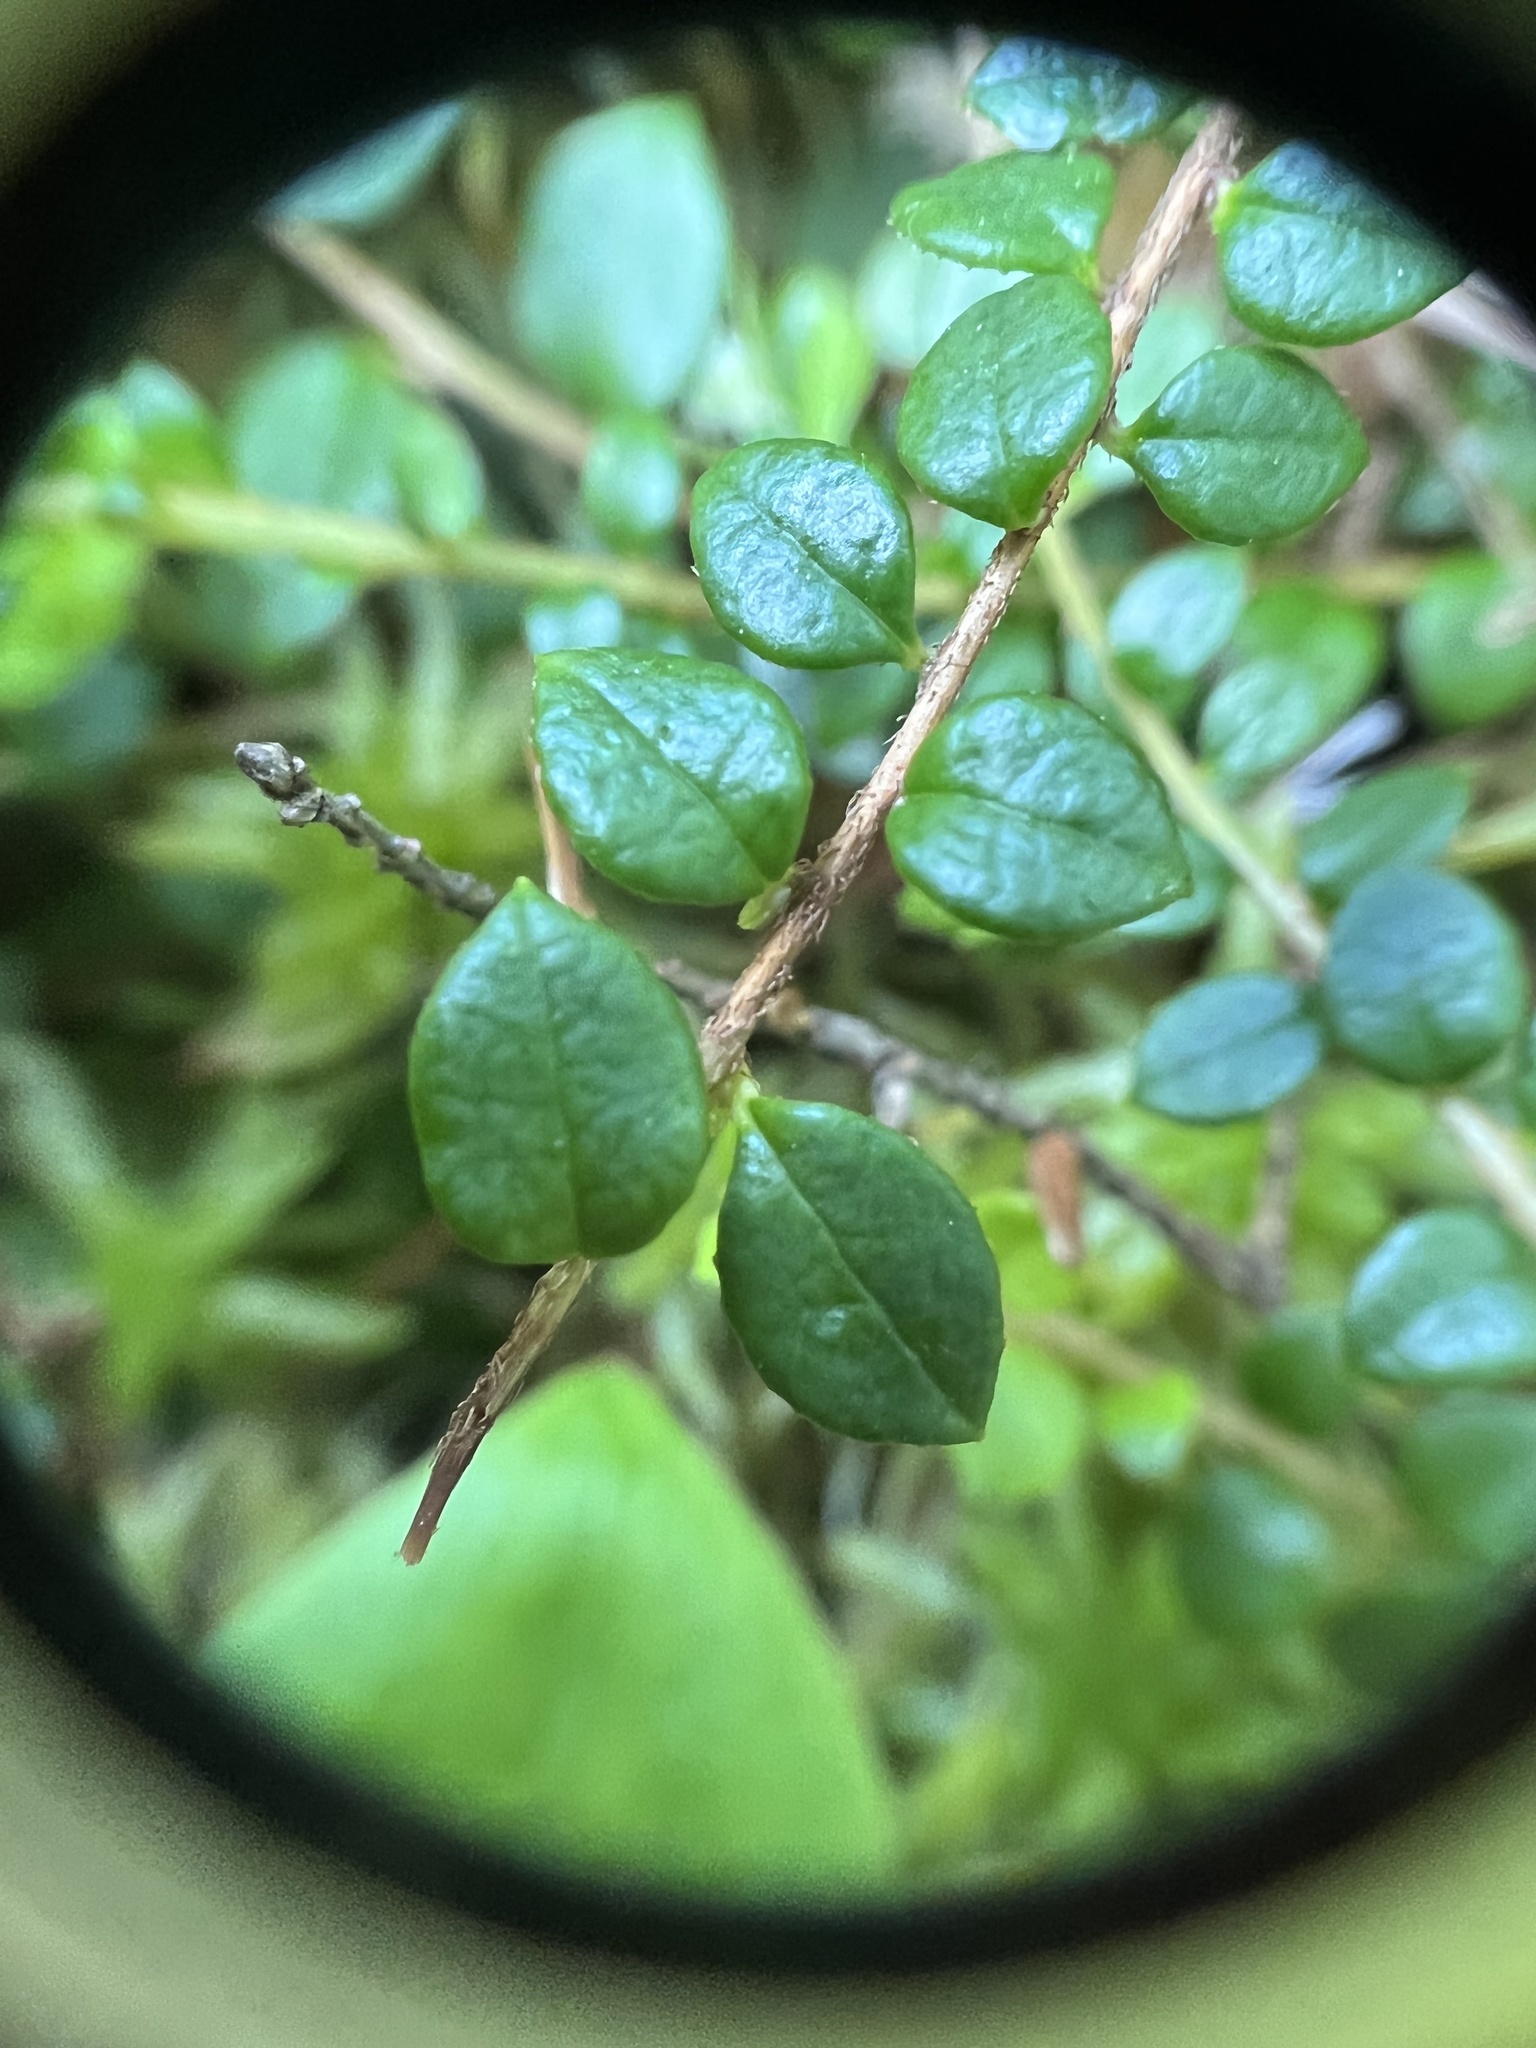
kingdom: Plantae
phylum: Tracheophyta
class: Magnoliopsida
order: Ericales
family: Ericaceae
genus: Gaultheria
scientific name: Gaultheria hispidula
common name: Cancer wintergreen
